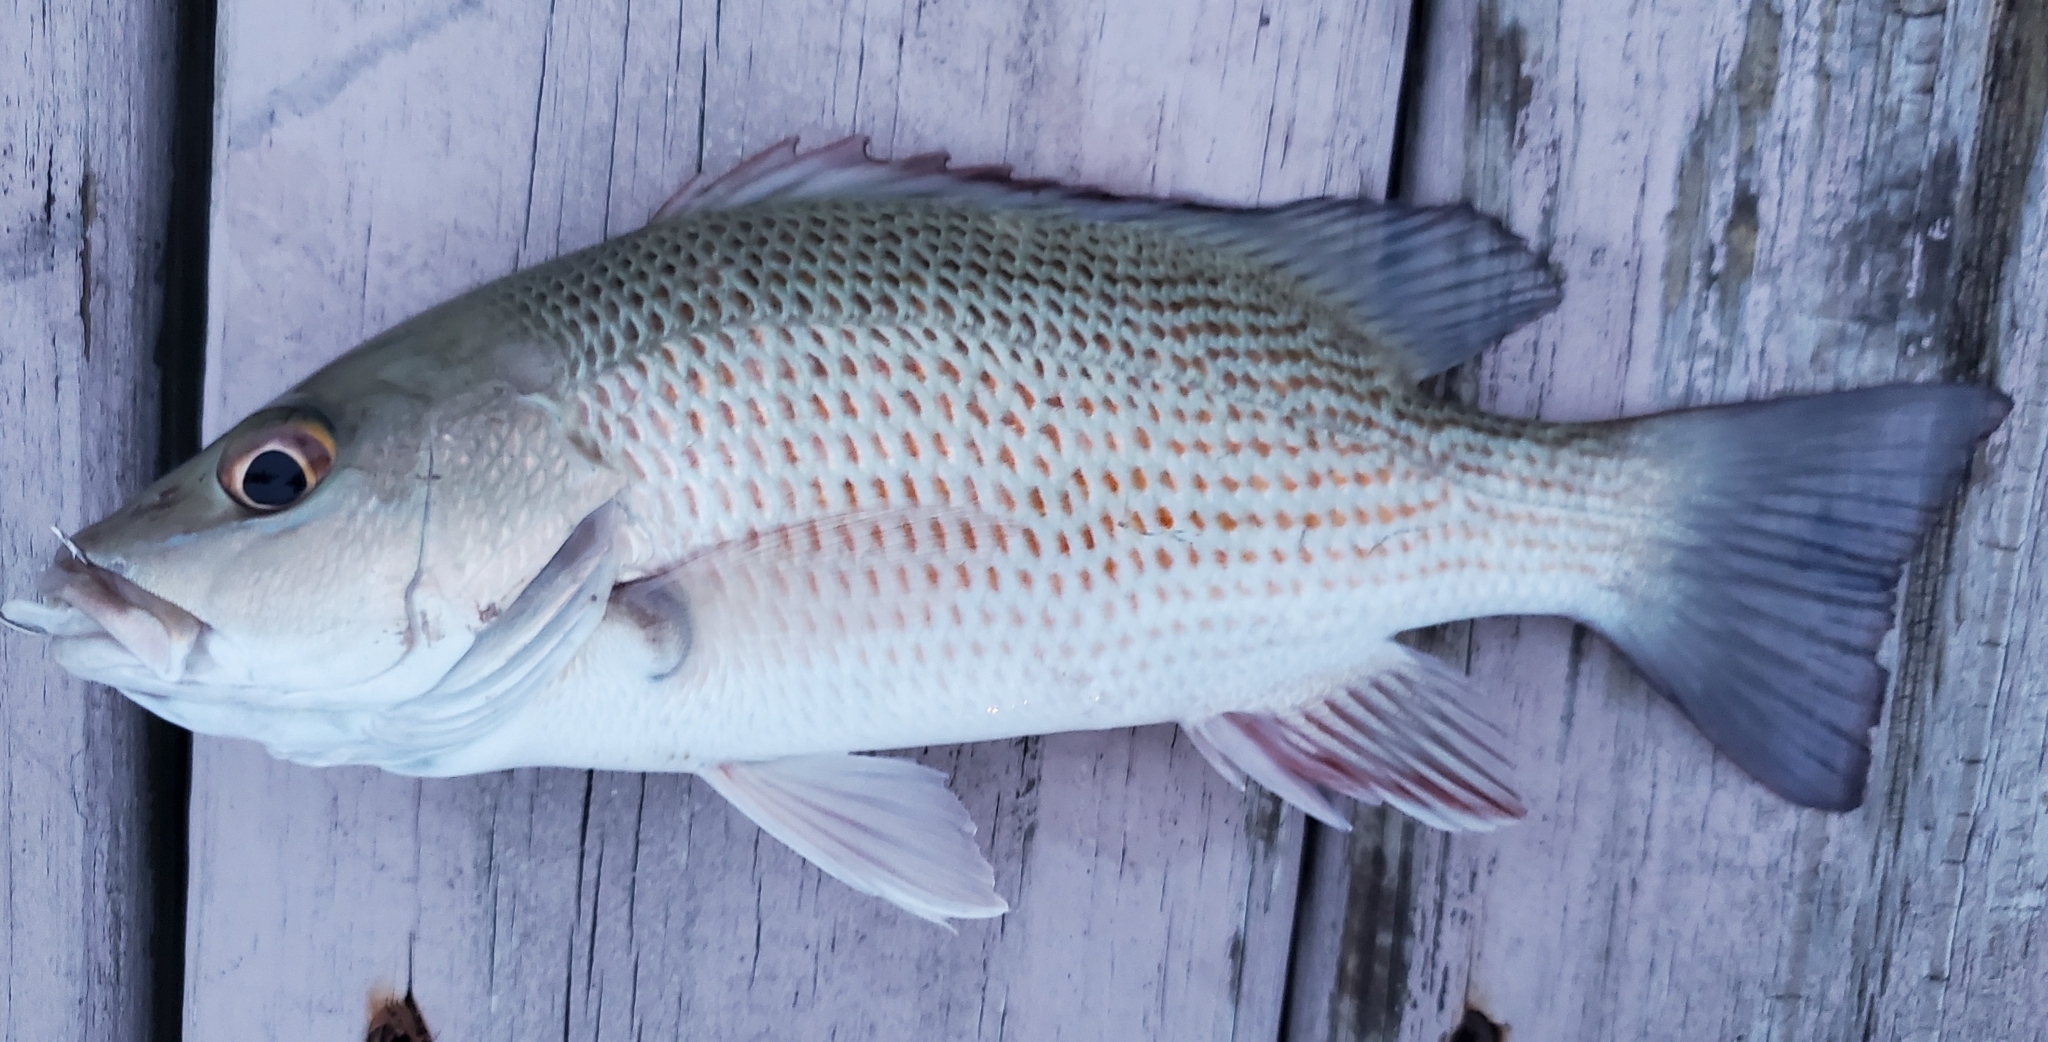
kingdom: Animalia
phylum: Chordata
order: Perciformes
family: Lutjanidae
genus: Lutjanus
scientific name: Lutjanus griseus
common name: Gray snapper
